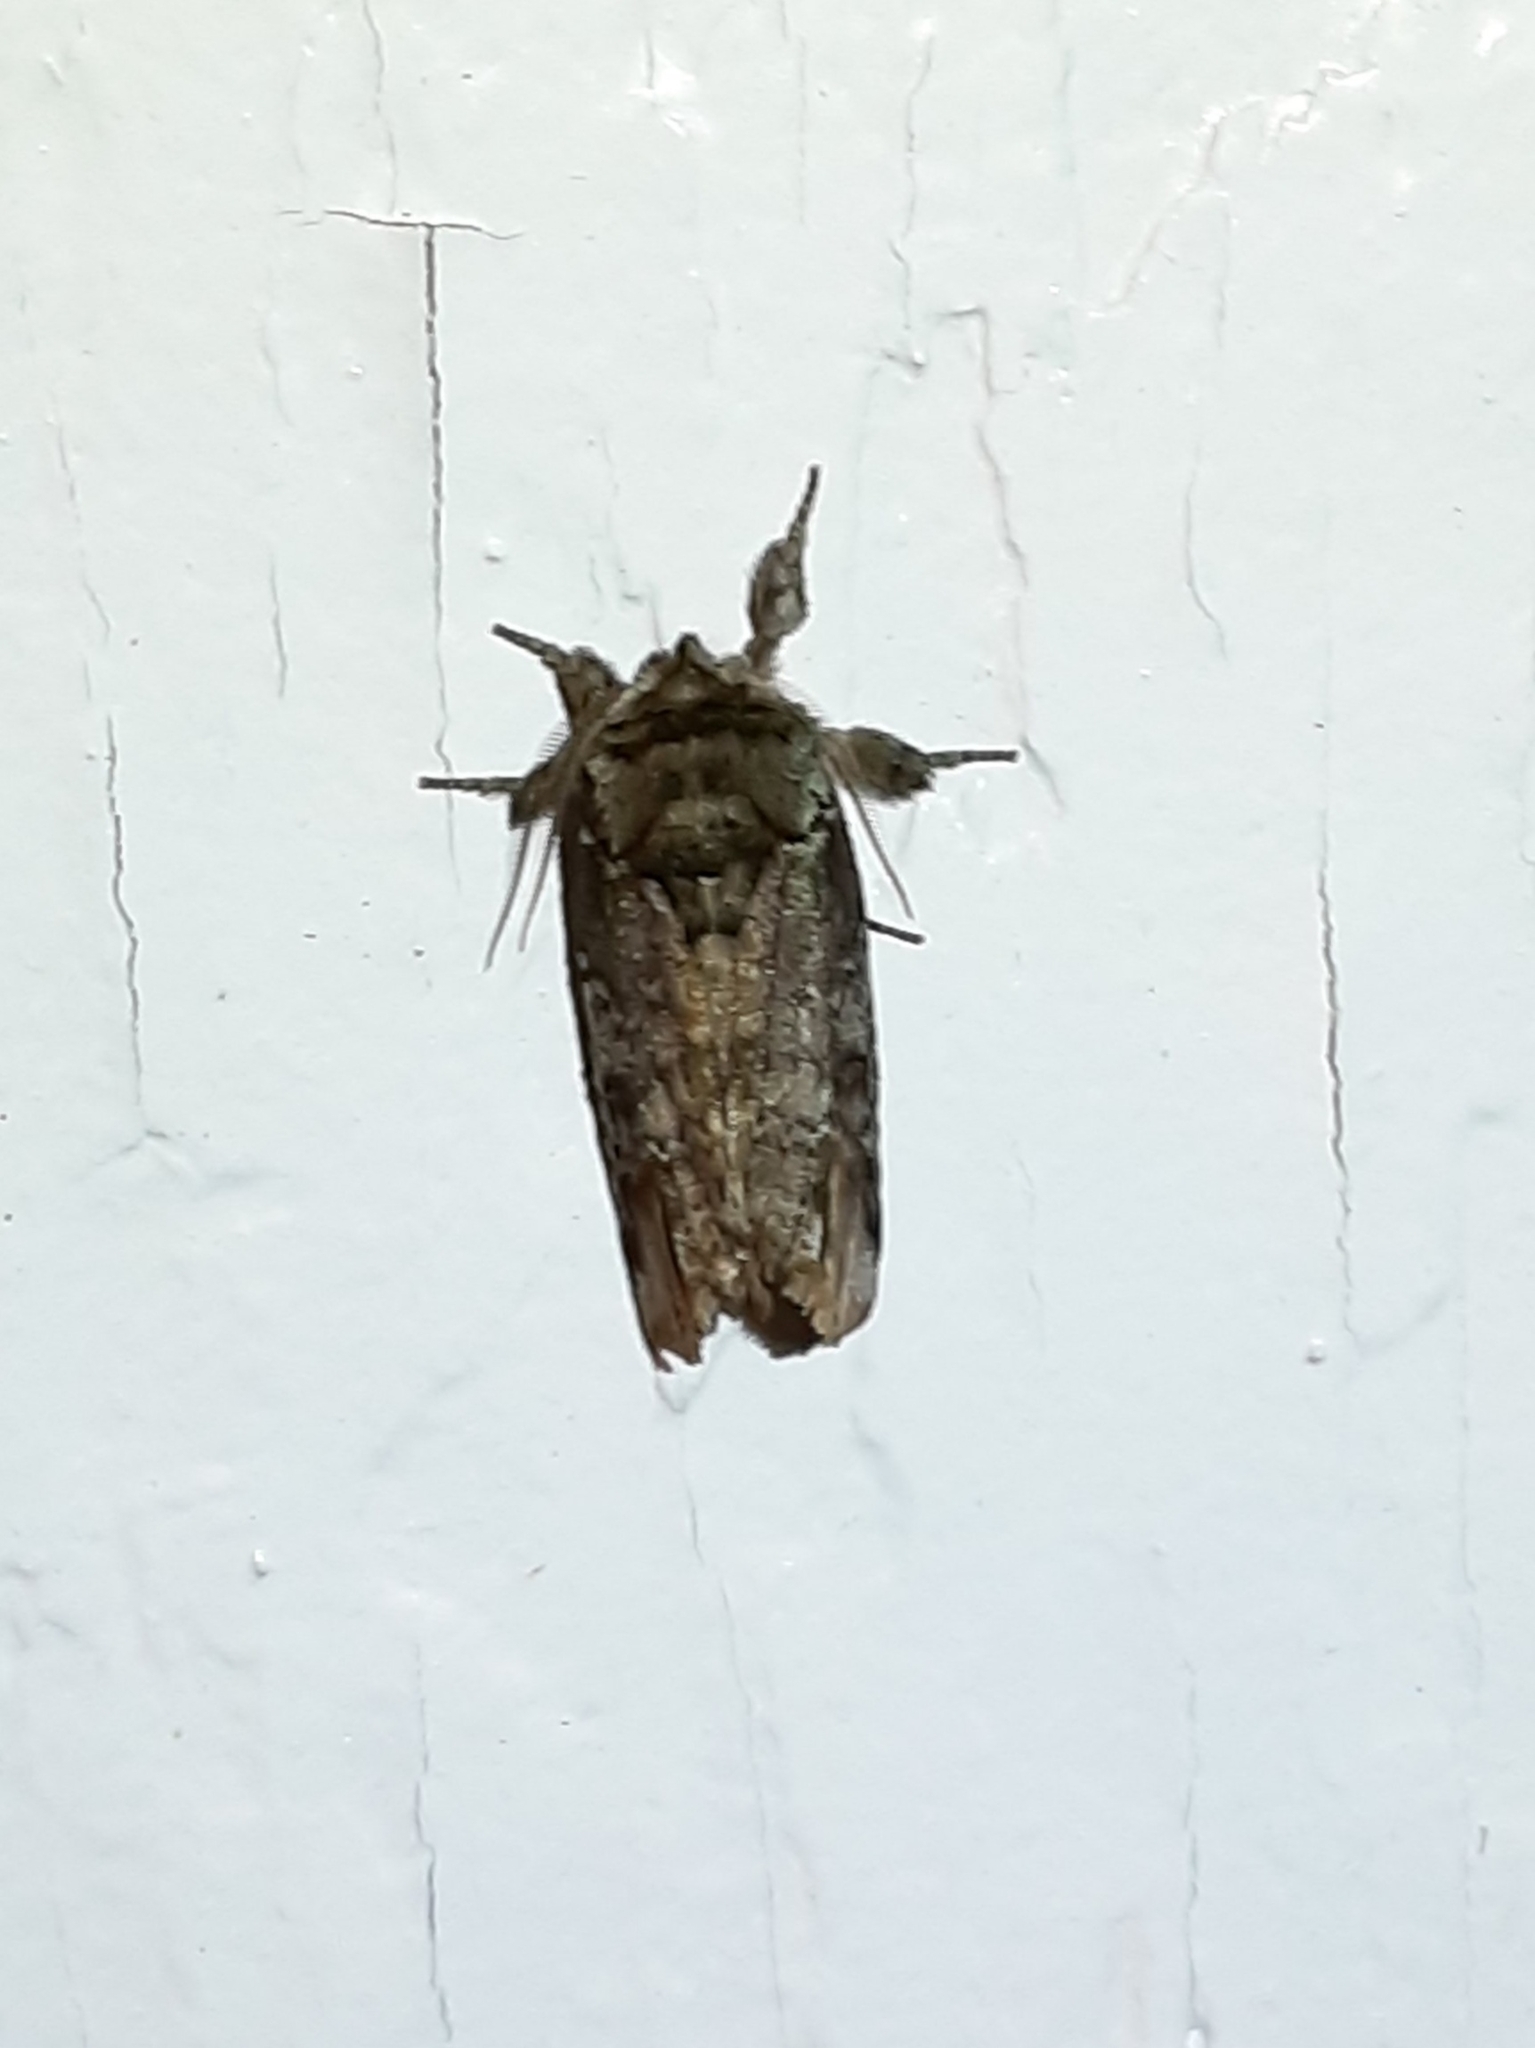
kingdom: Animalia
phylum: Arthropoda
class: Insecta
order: Lepidoptera
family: Notodontidae
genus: Schizura
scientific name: Schizura
